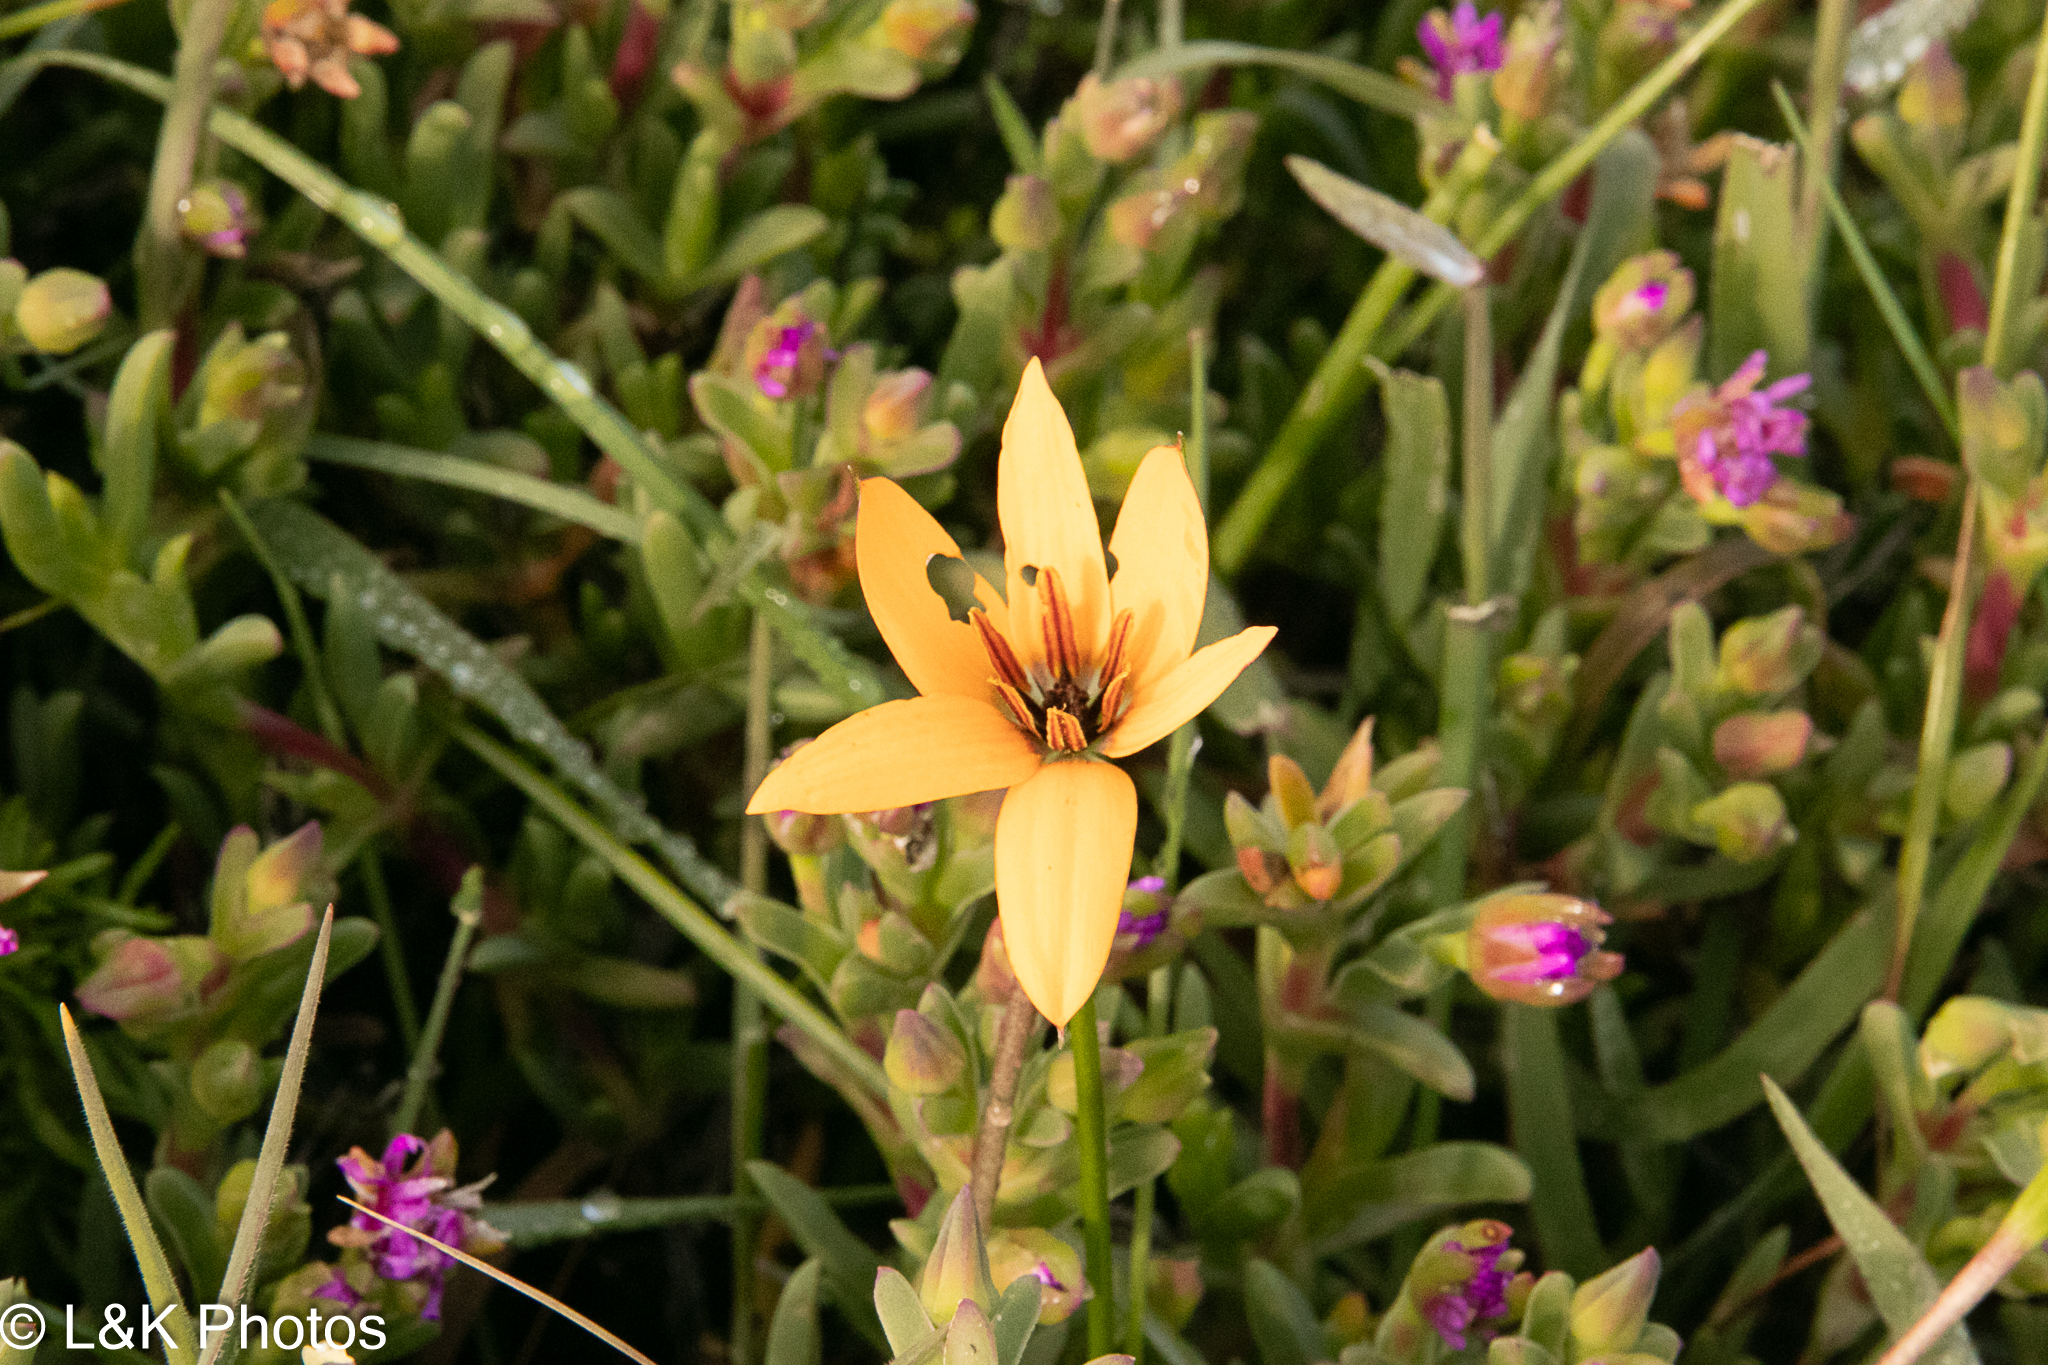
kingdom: Plantae
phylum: Tracheophyta
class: Liliopsida
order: Asparagales
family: Hypoxidaceae
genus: Pauridia
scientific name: Pauridia linearis
